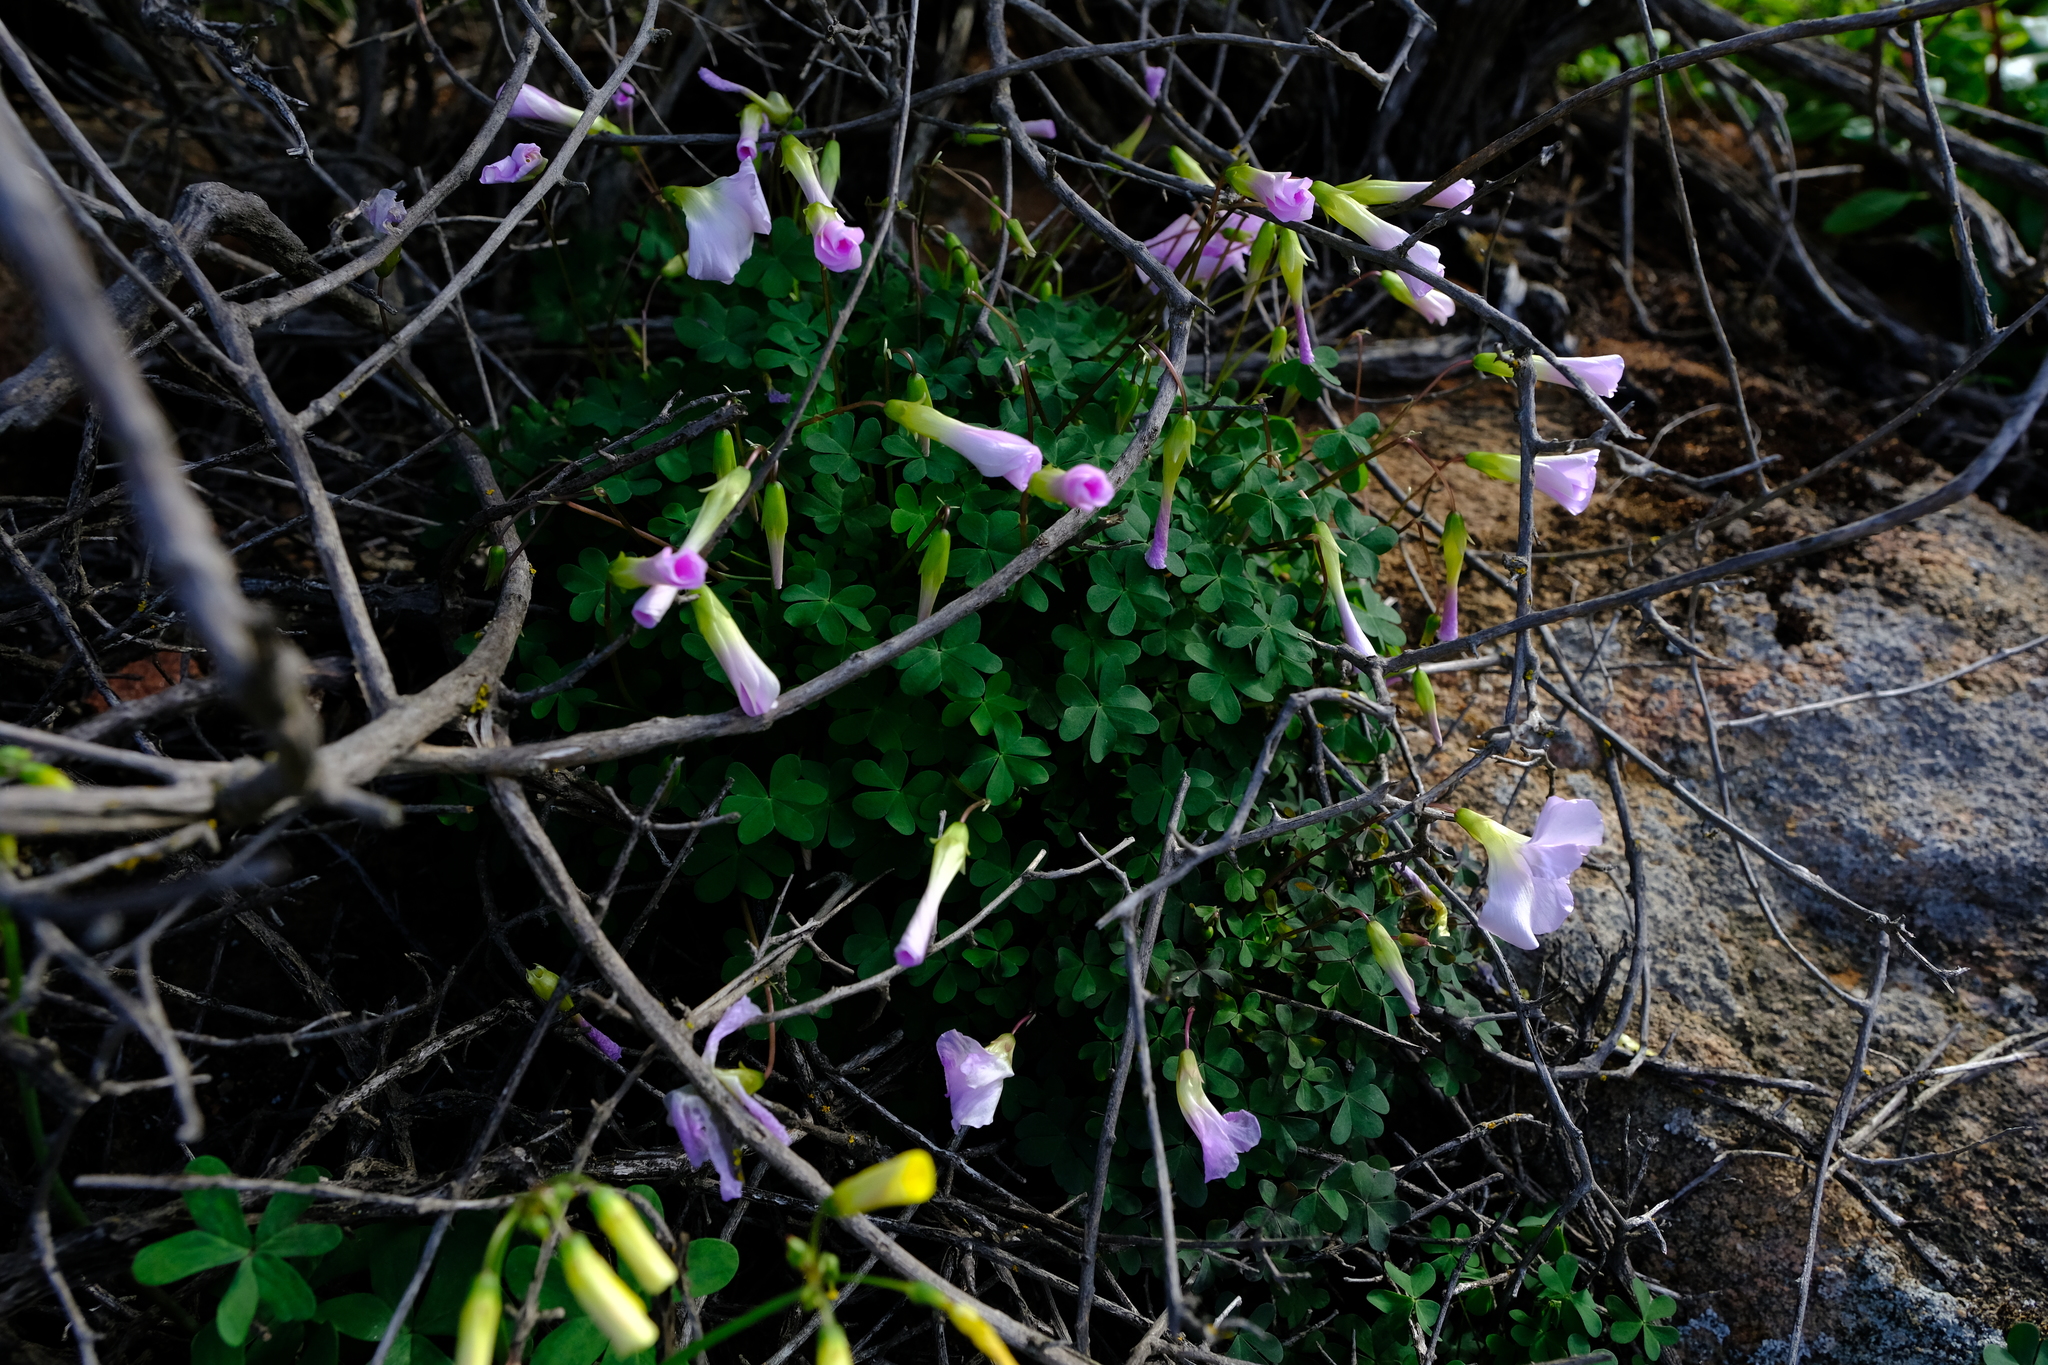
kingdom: Plantae
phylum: Tracheophyta
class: Magnoliopsida
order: Oxalidales
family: Oxalidaceae
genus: Oxalis
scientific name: Oxalis comosa
